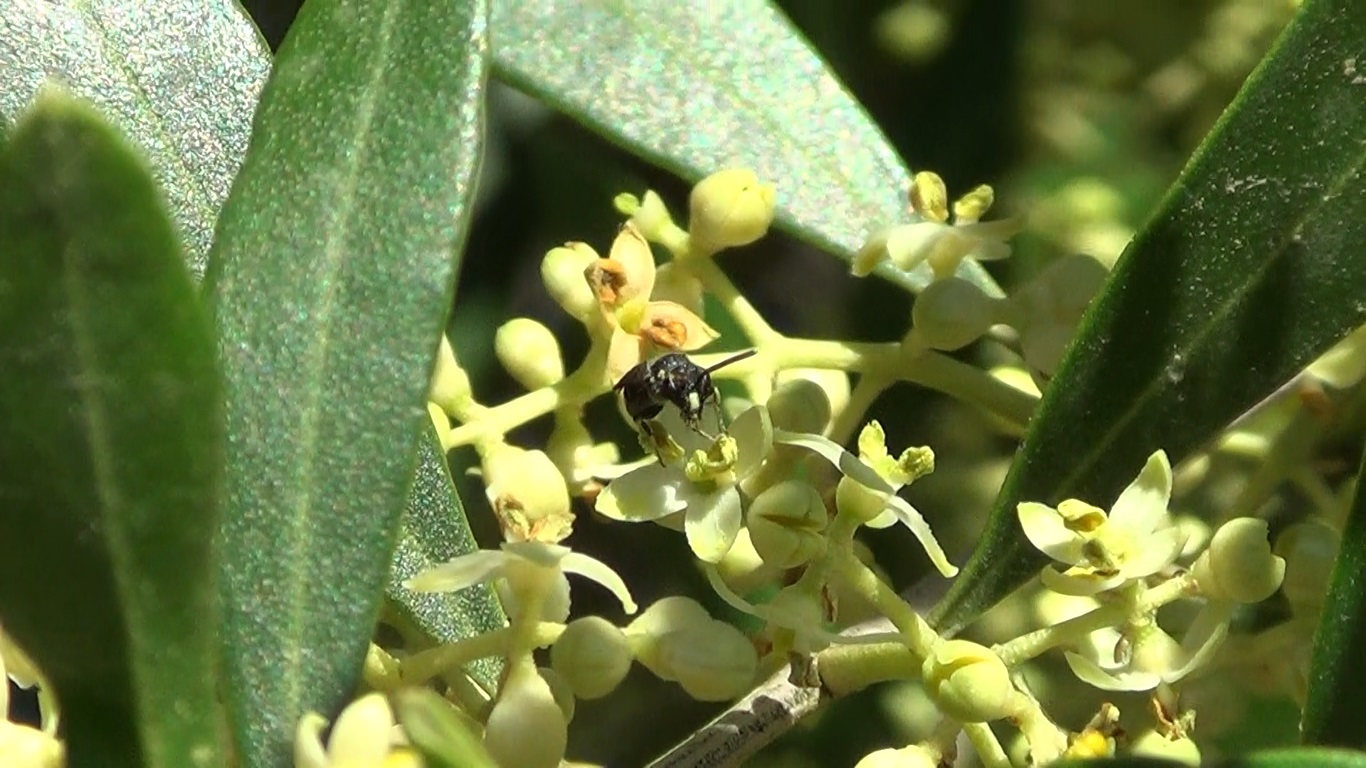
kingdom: Animalia
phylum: Arthropoda
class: Insecta
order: Hymenoptera
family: Colletidae
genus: Hylaeus
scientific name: Hylaeus punctatus
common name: Punctate masked bee
